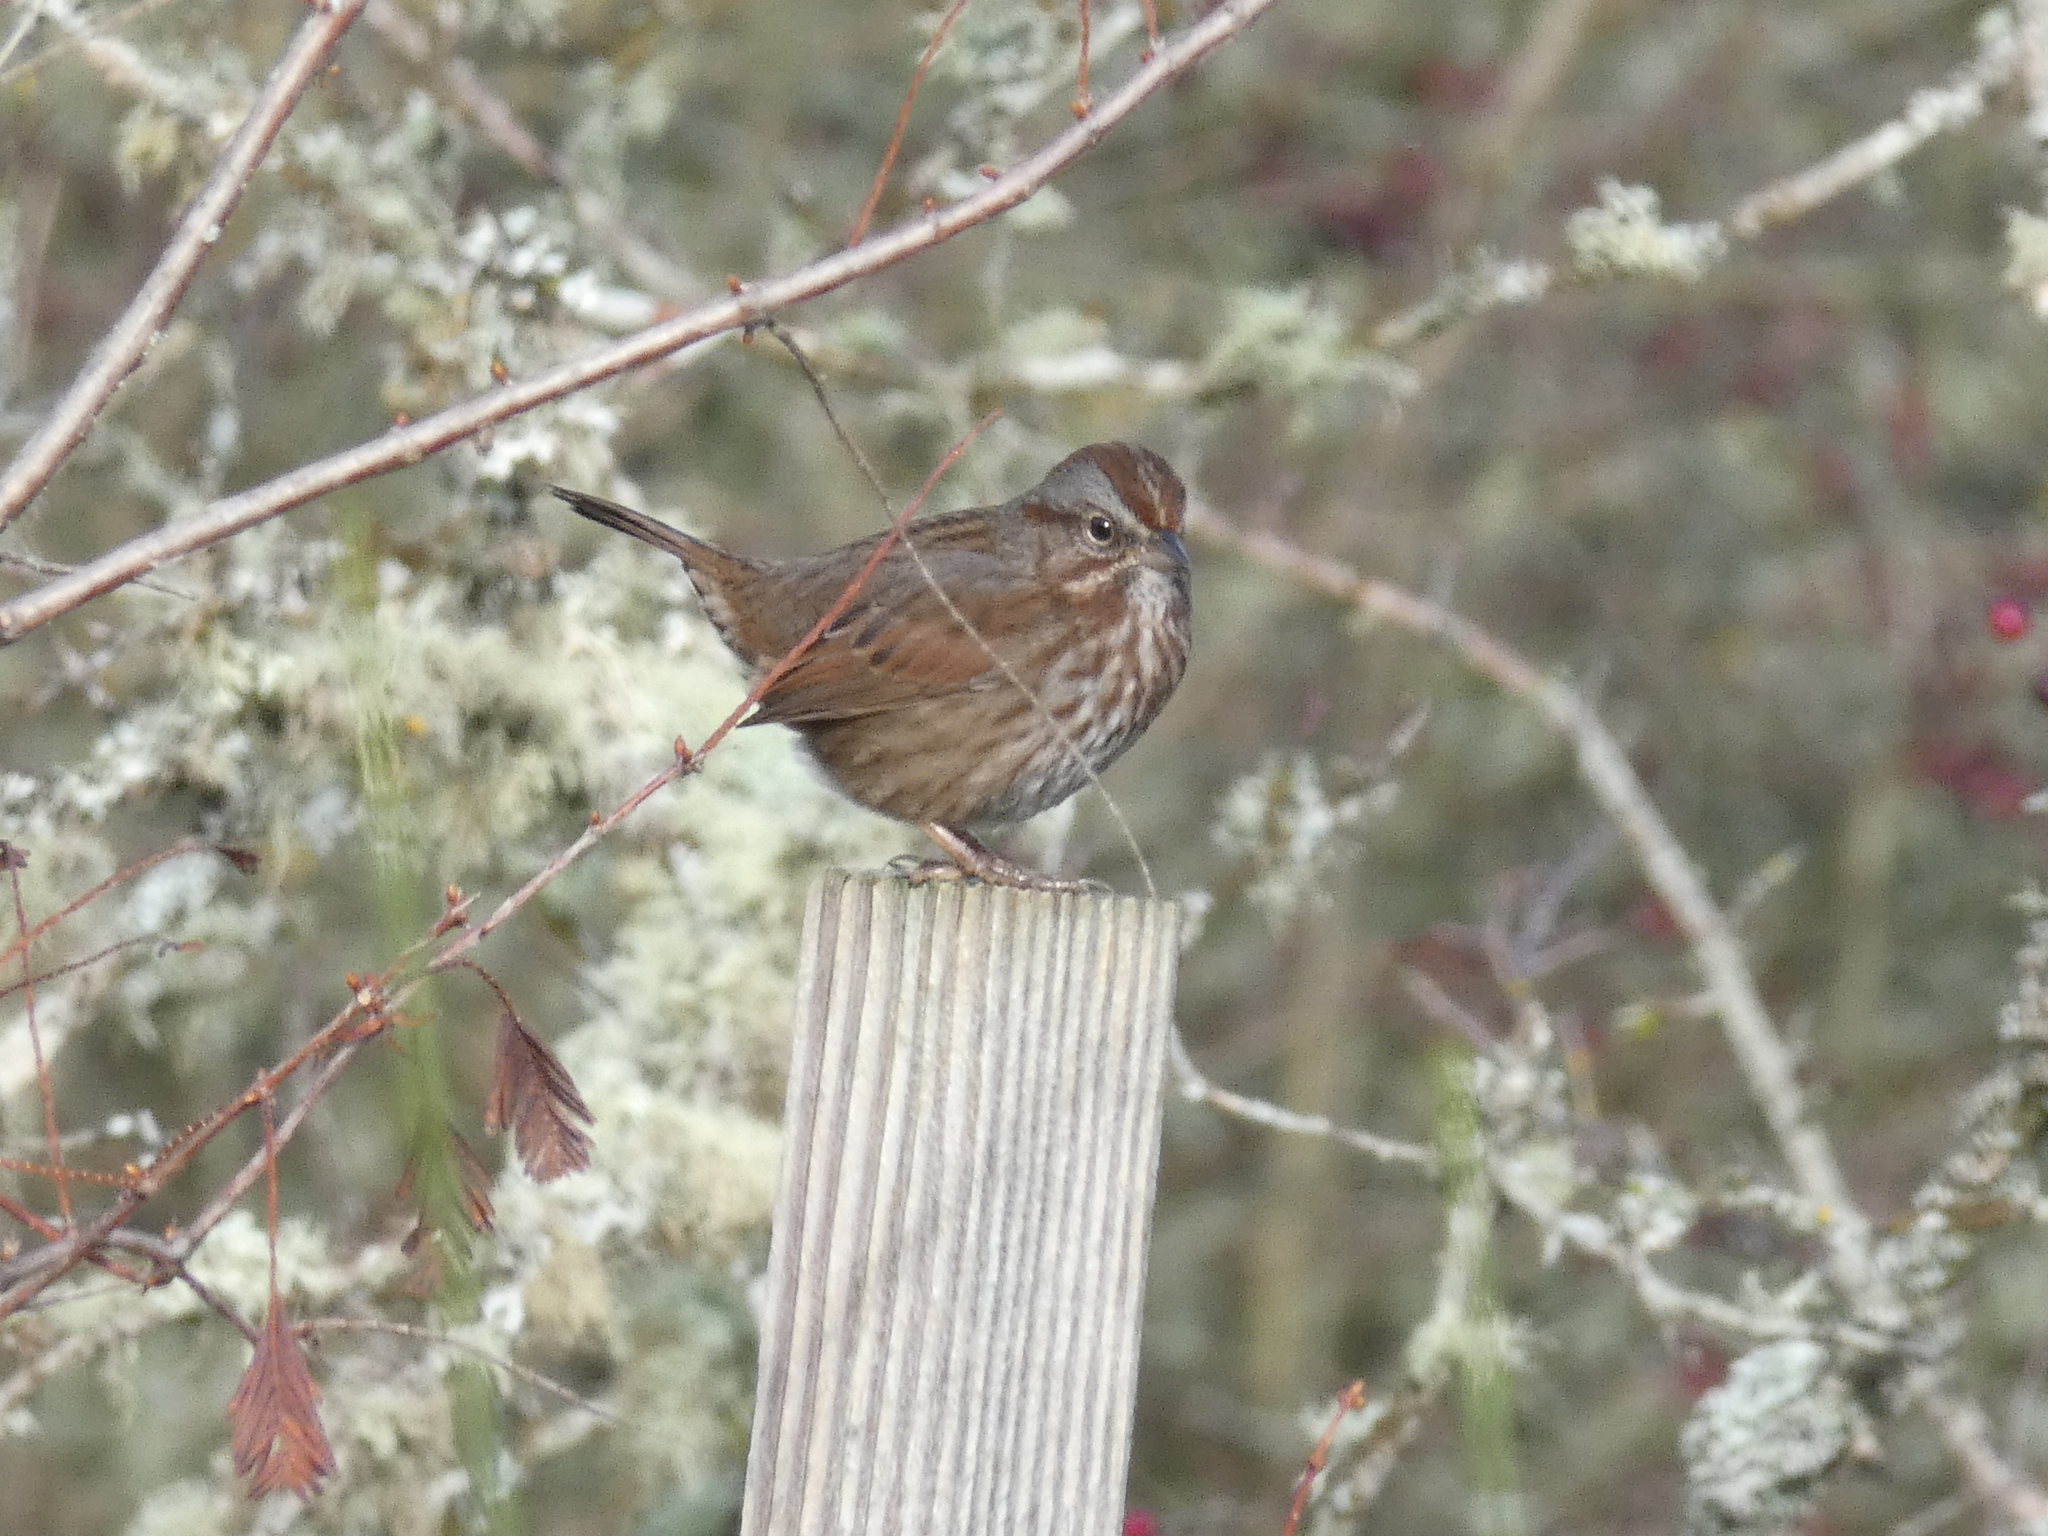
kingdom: Animalia
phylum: Chordata
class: Aves
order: Passeriformes
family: Passerellidae
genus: Melospiza
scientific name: Melospiza melodia
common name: Song sparrow
